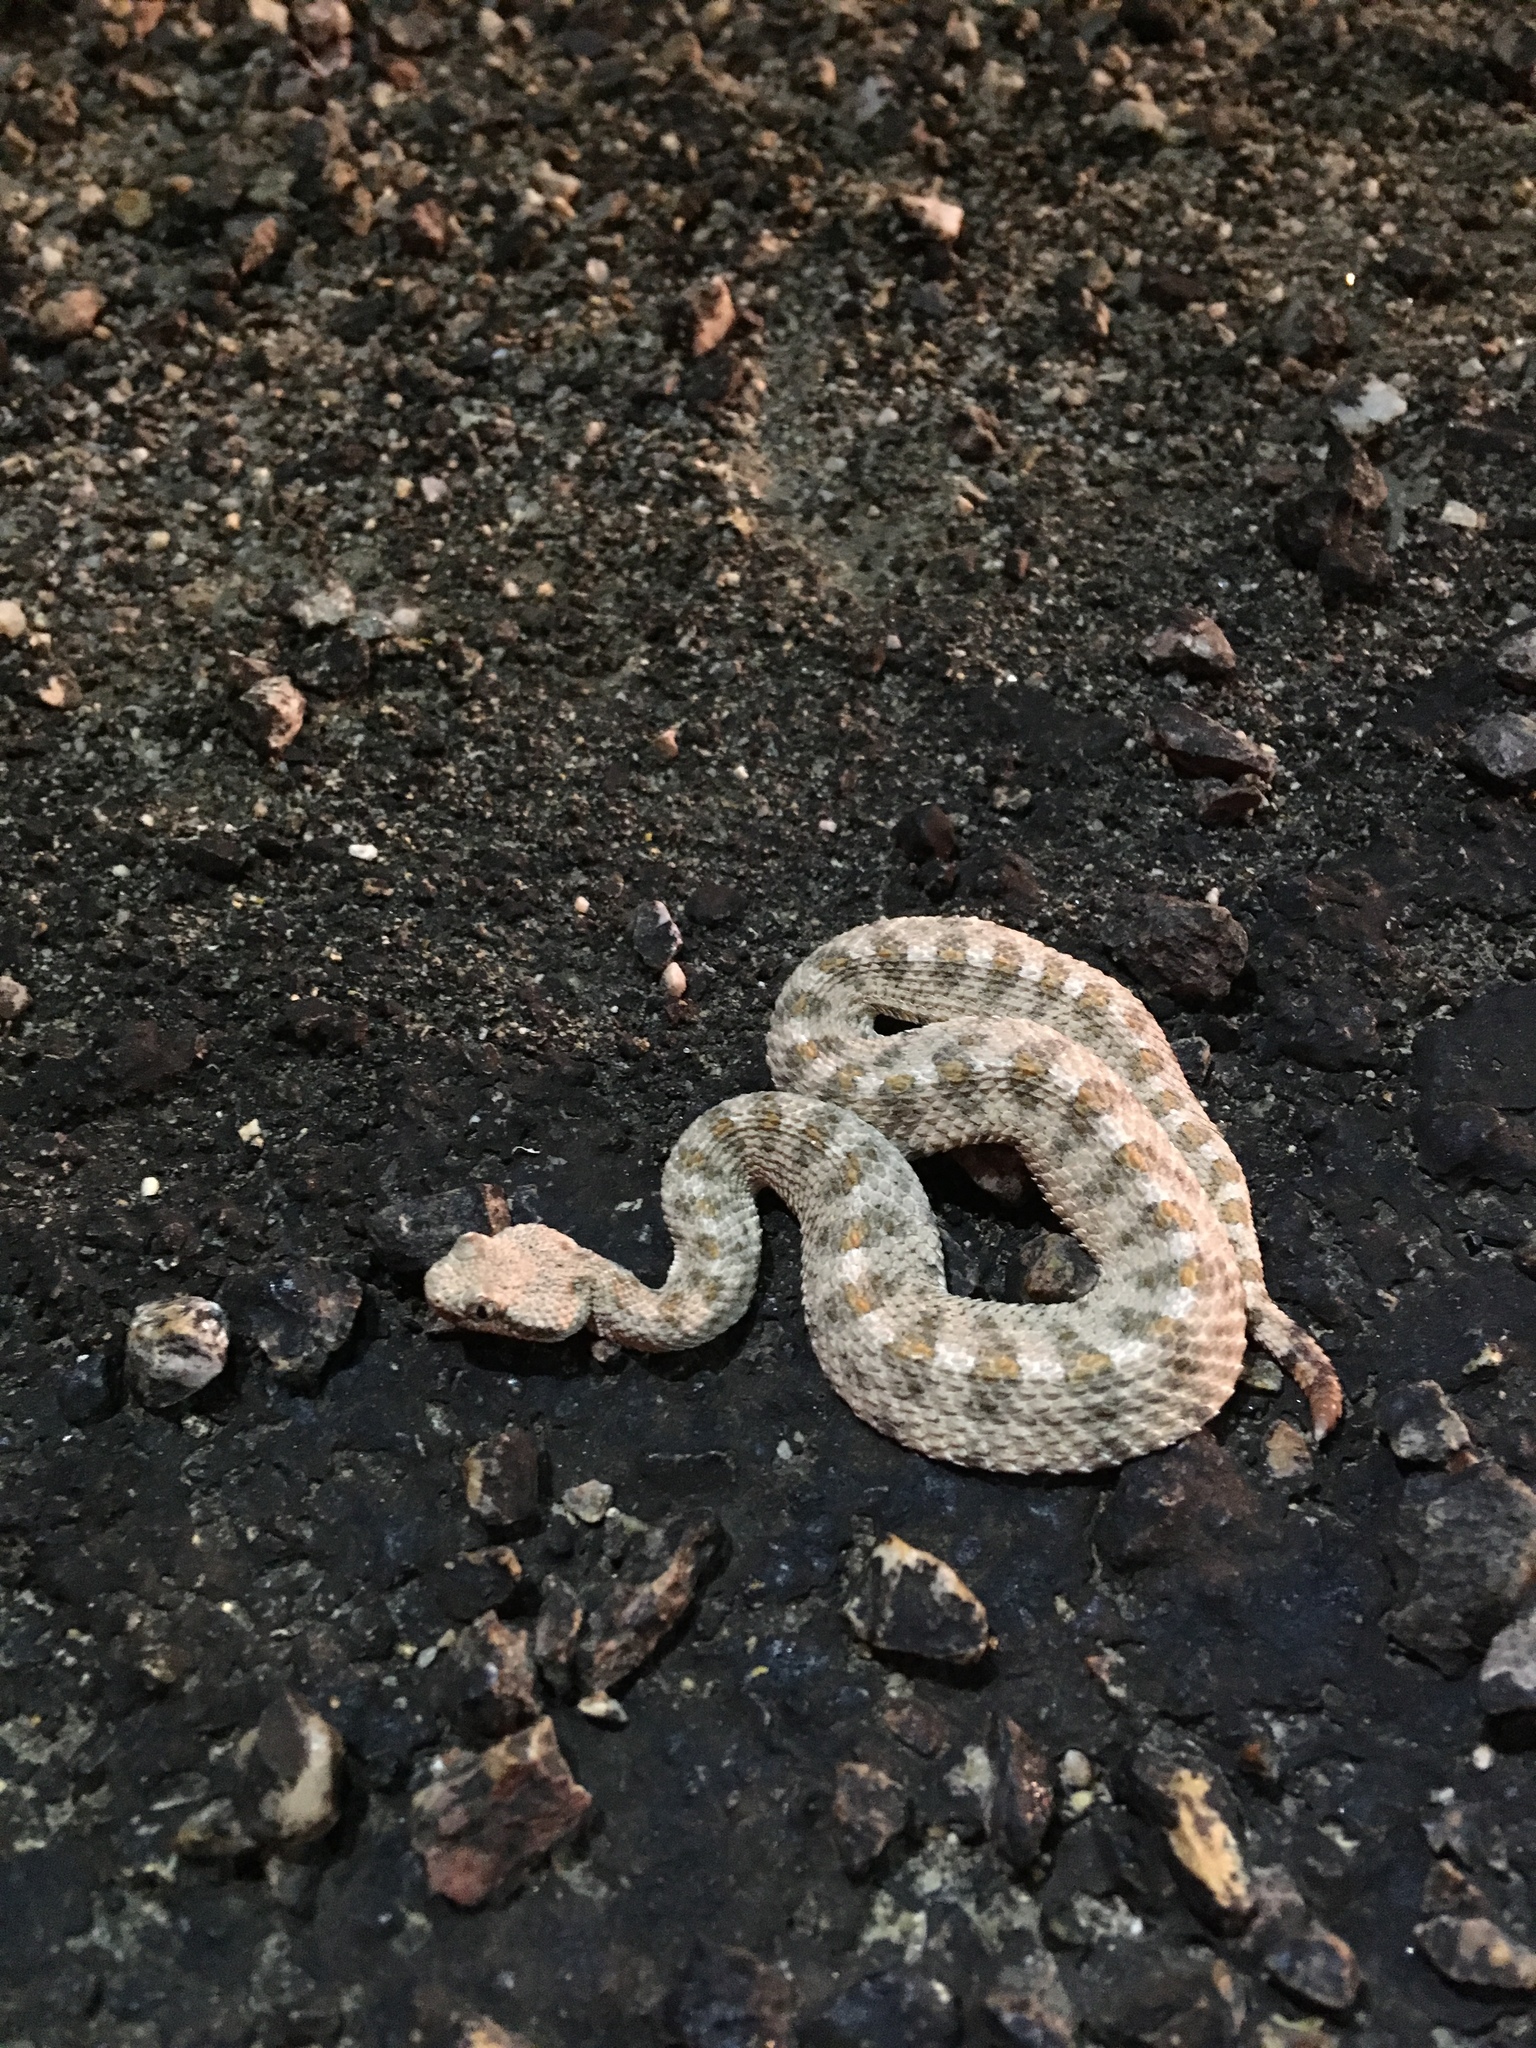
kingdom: Animalia
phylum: Chordata
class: Squamata
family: Viperidae
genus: Crotalus
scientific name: Crotalus cerastes
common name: Sidewinder
